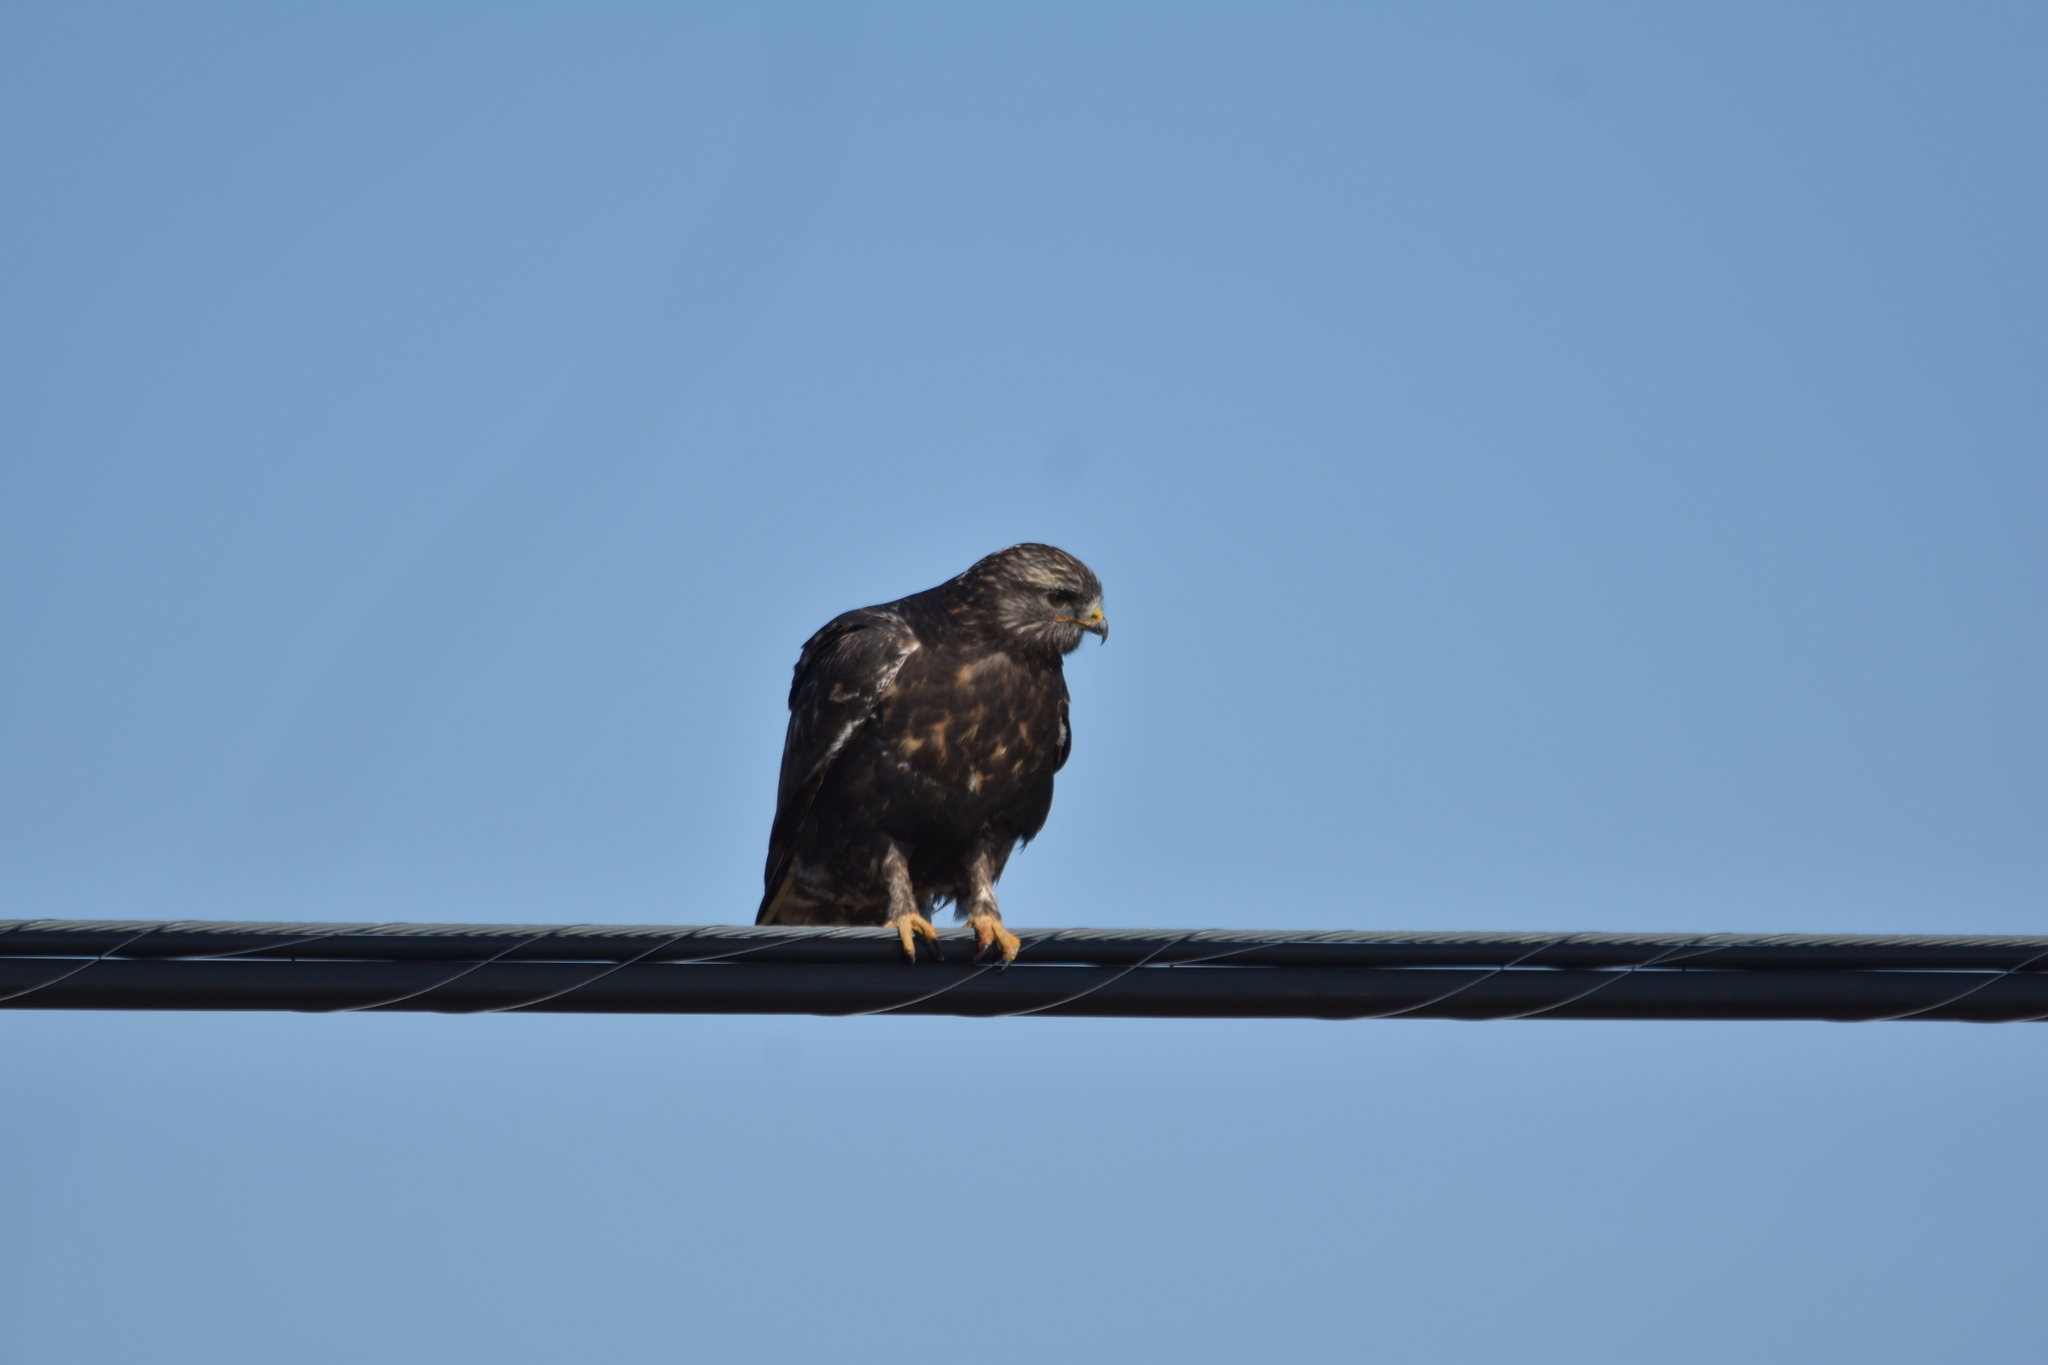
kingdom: Animalia
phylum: Chordata
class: Aves
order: Accipitriformes
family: Accipitridae
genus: Buteo
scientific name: Buteo lagopus
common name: Rough-legged buzzard
